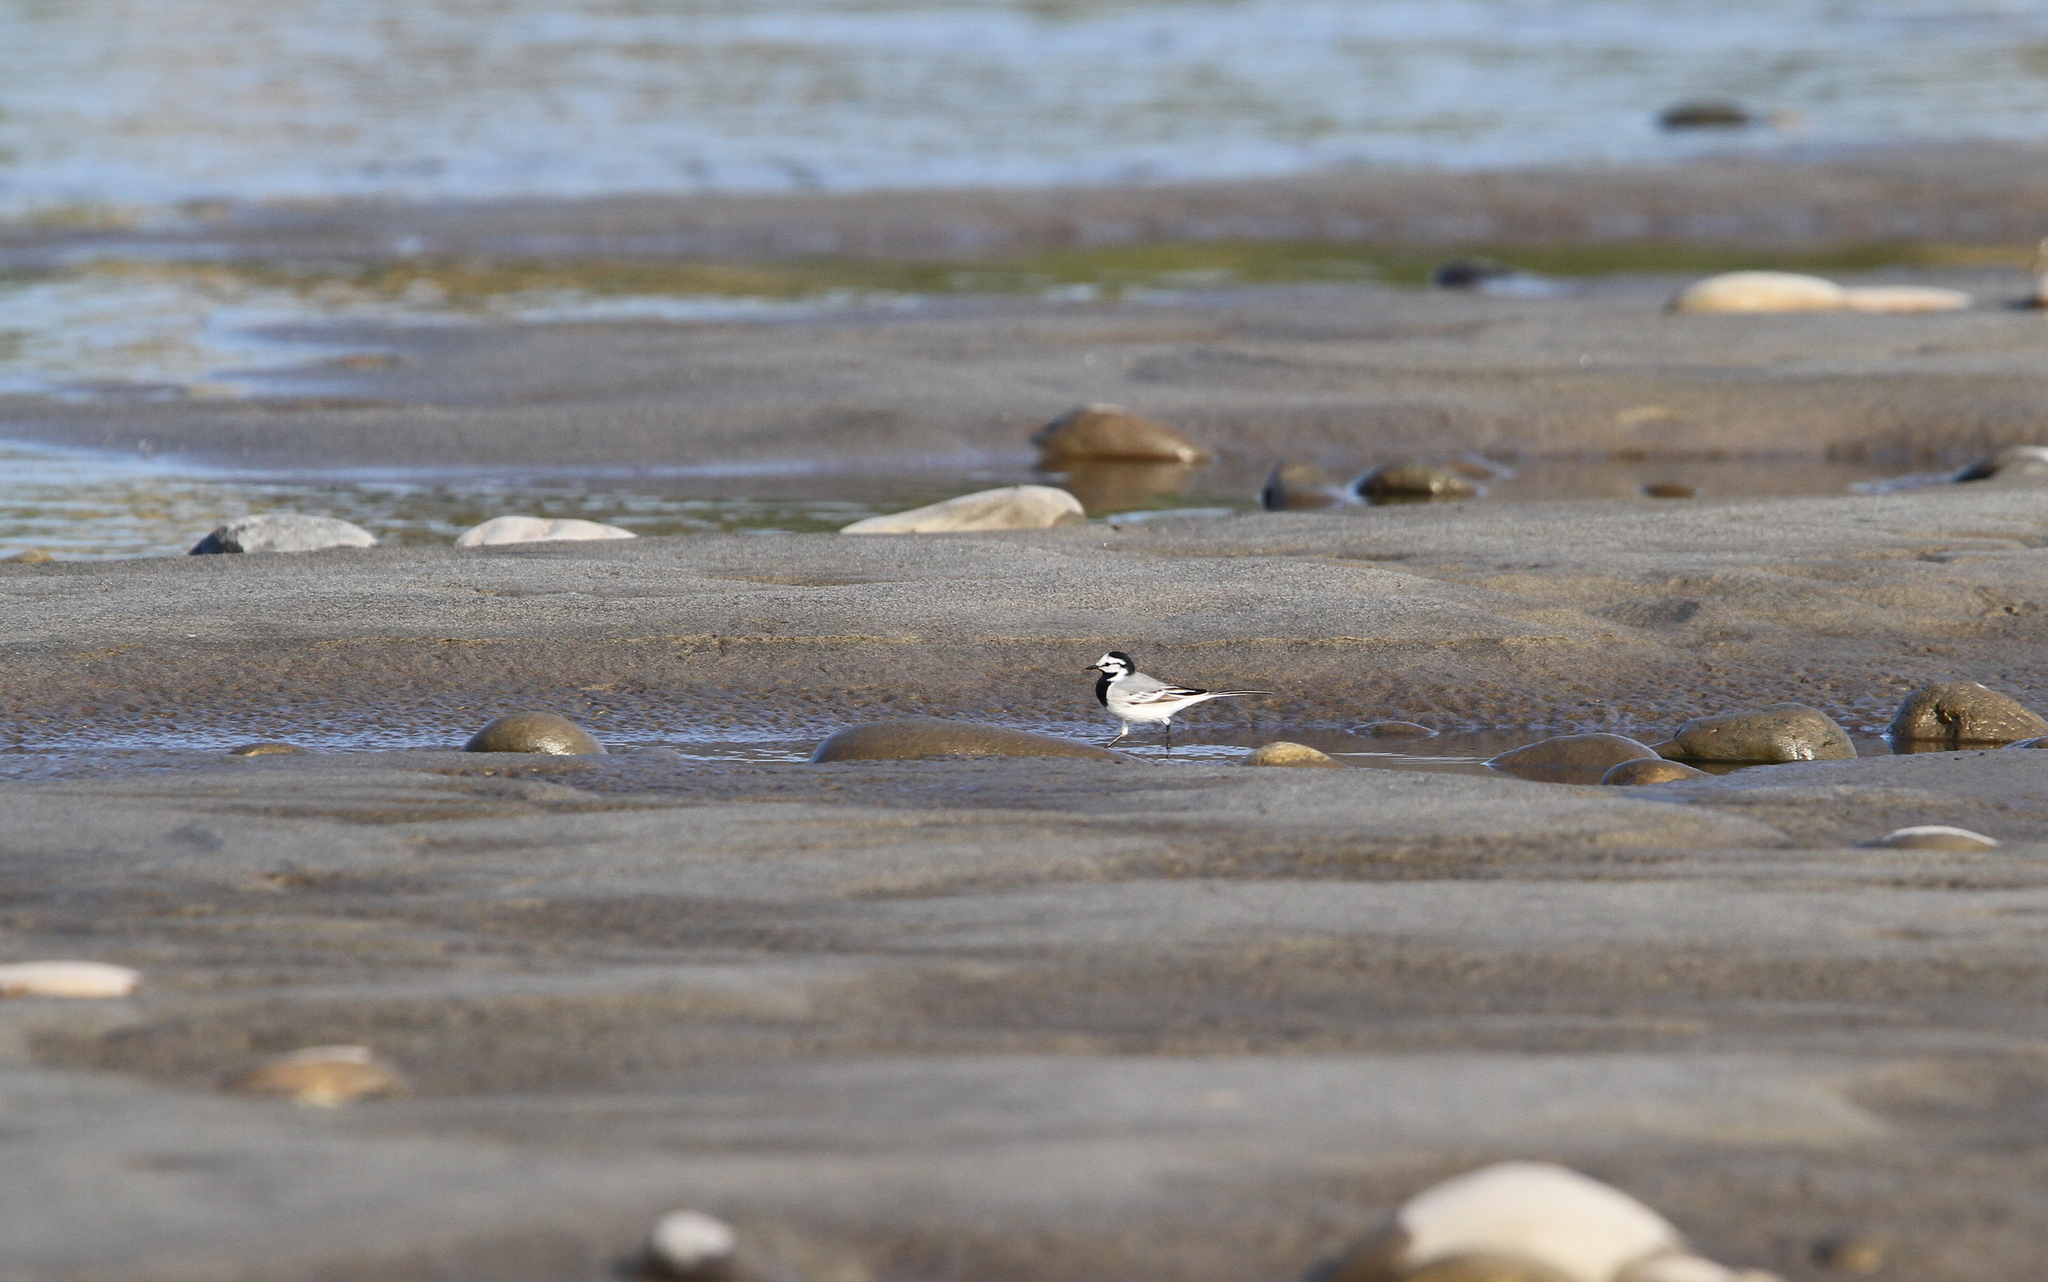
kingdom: Animalia
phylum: Chordata
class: Aves
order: Passeriformes
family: Motacillidae
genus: Motacilla
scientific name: Motacilla alba
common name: White wagtail
